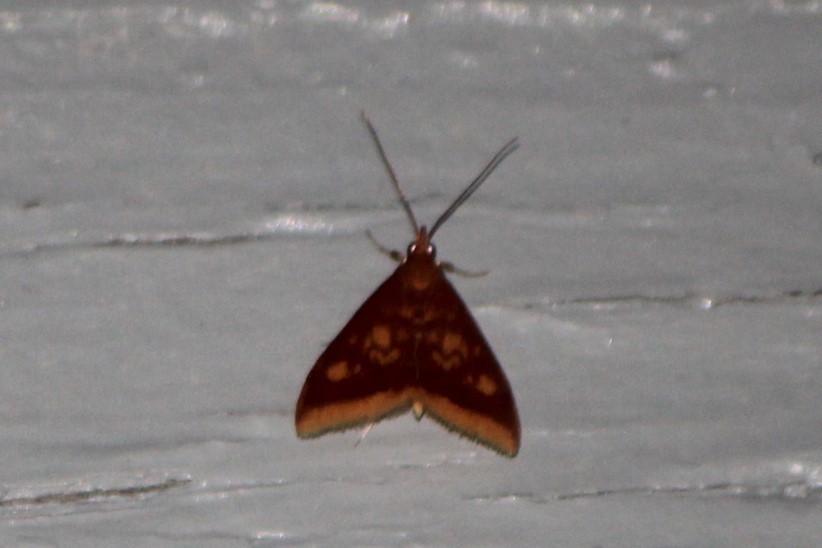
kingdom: Animalia
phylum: Arthropoda
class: Insecta
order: Lepidoptera
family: Crambidae
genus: Pyrausta
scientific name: Pyrausta acrionalis
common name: Mint-loving pyrausta moth
